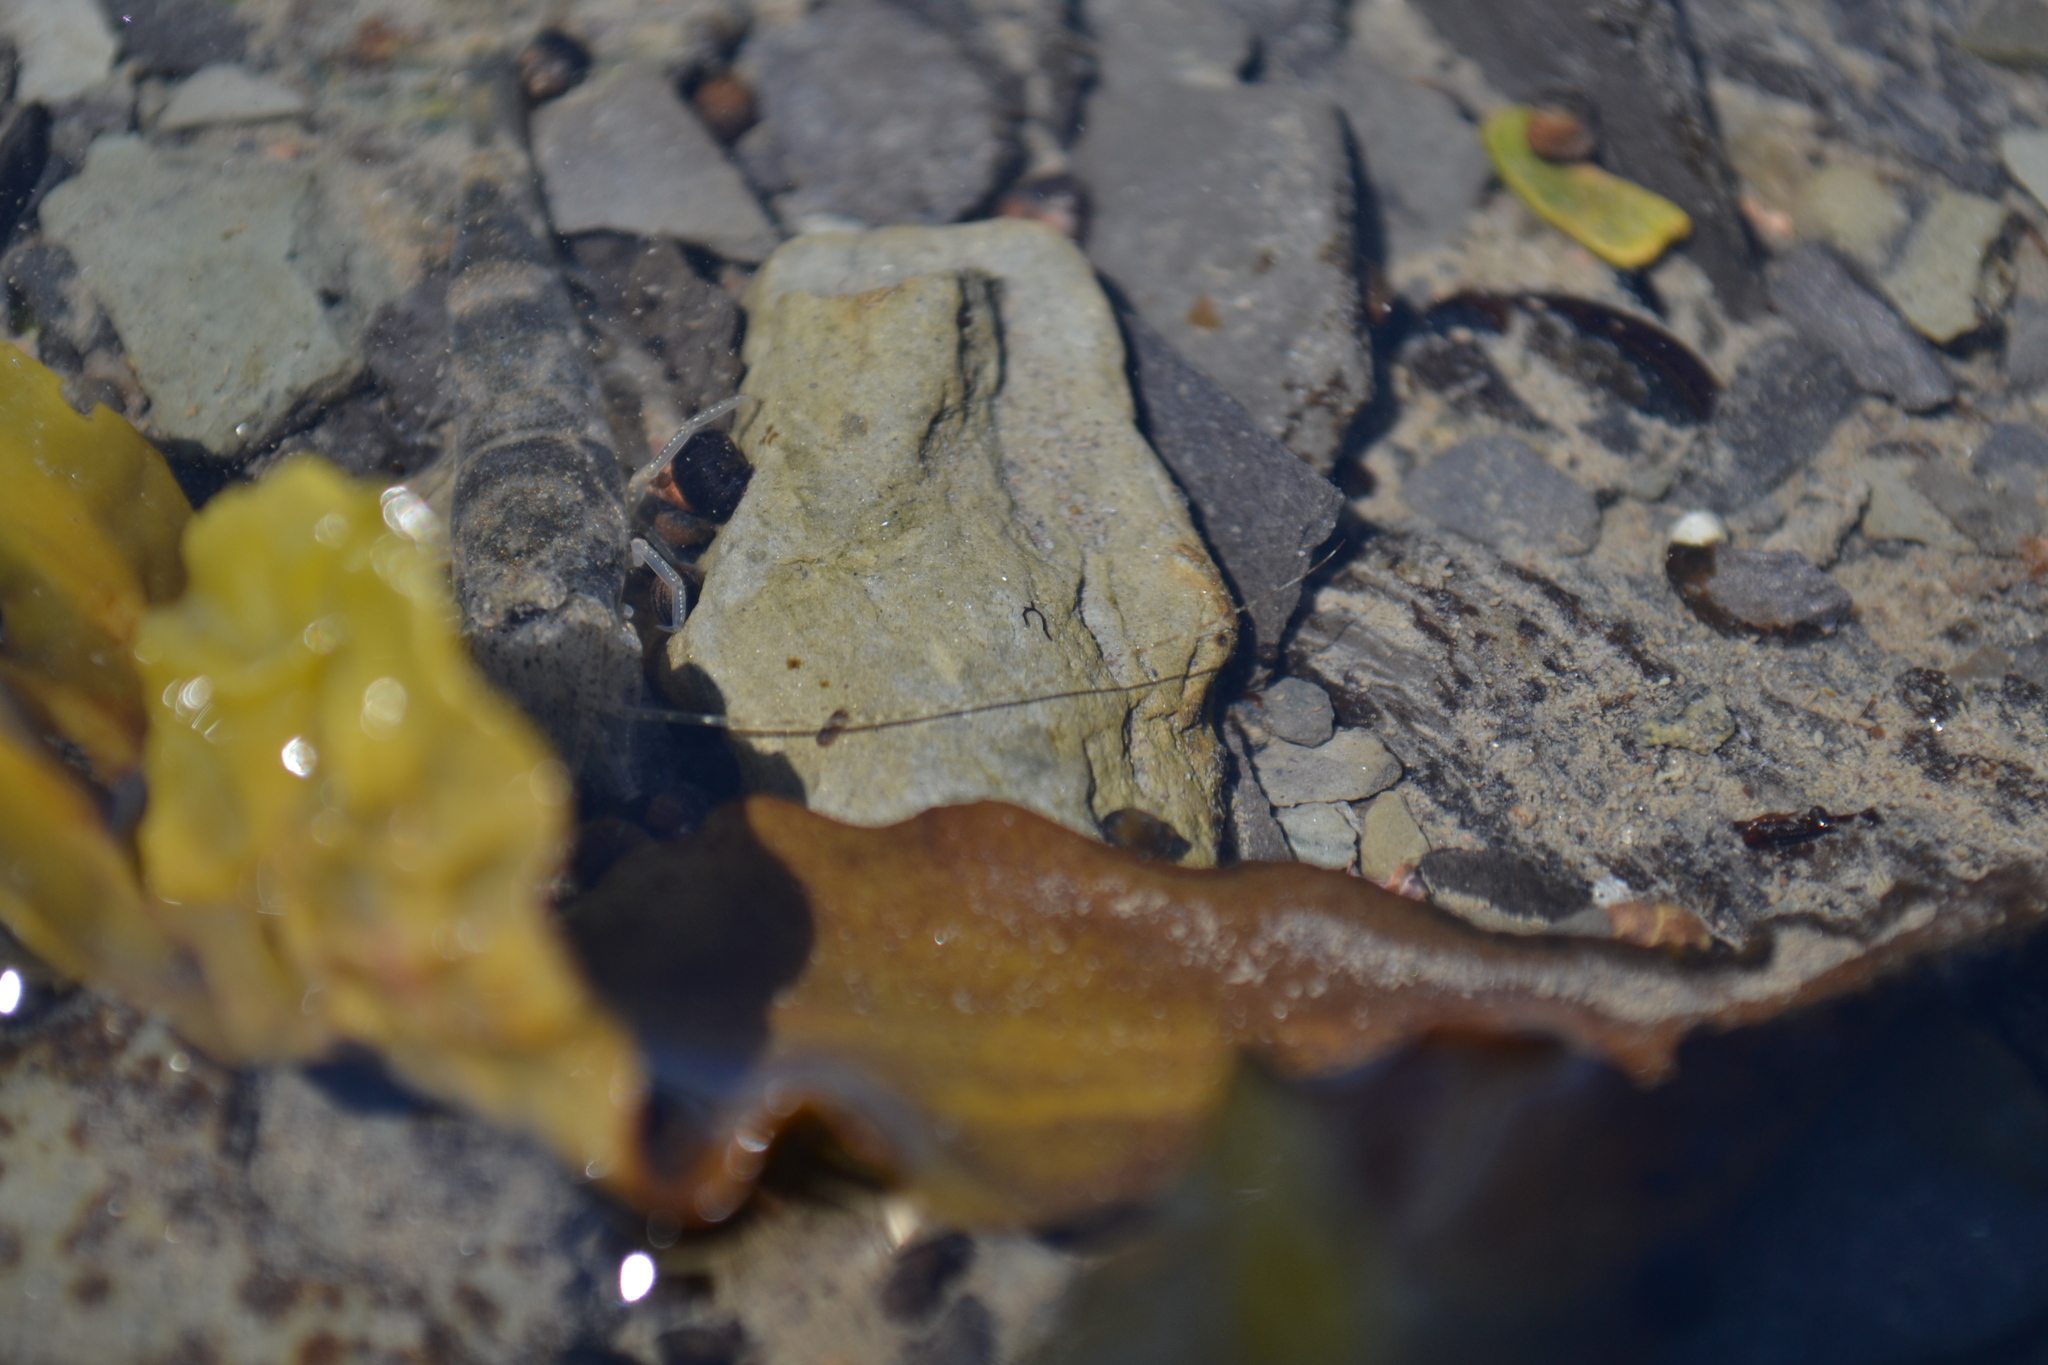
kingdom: Animalia
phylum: Arthropoda
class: Malacostraca
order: Decapoda
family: Crangonidae
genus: Crangon
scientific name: Crangon septemspinosa
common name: Bail shrimp
